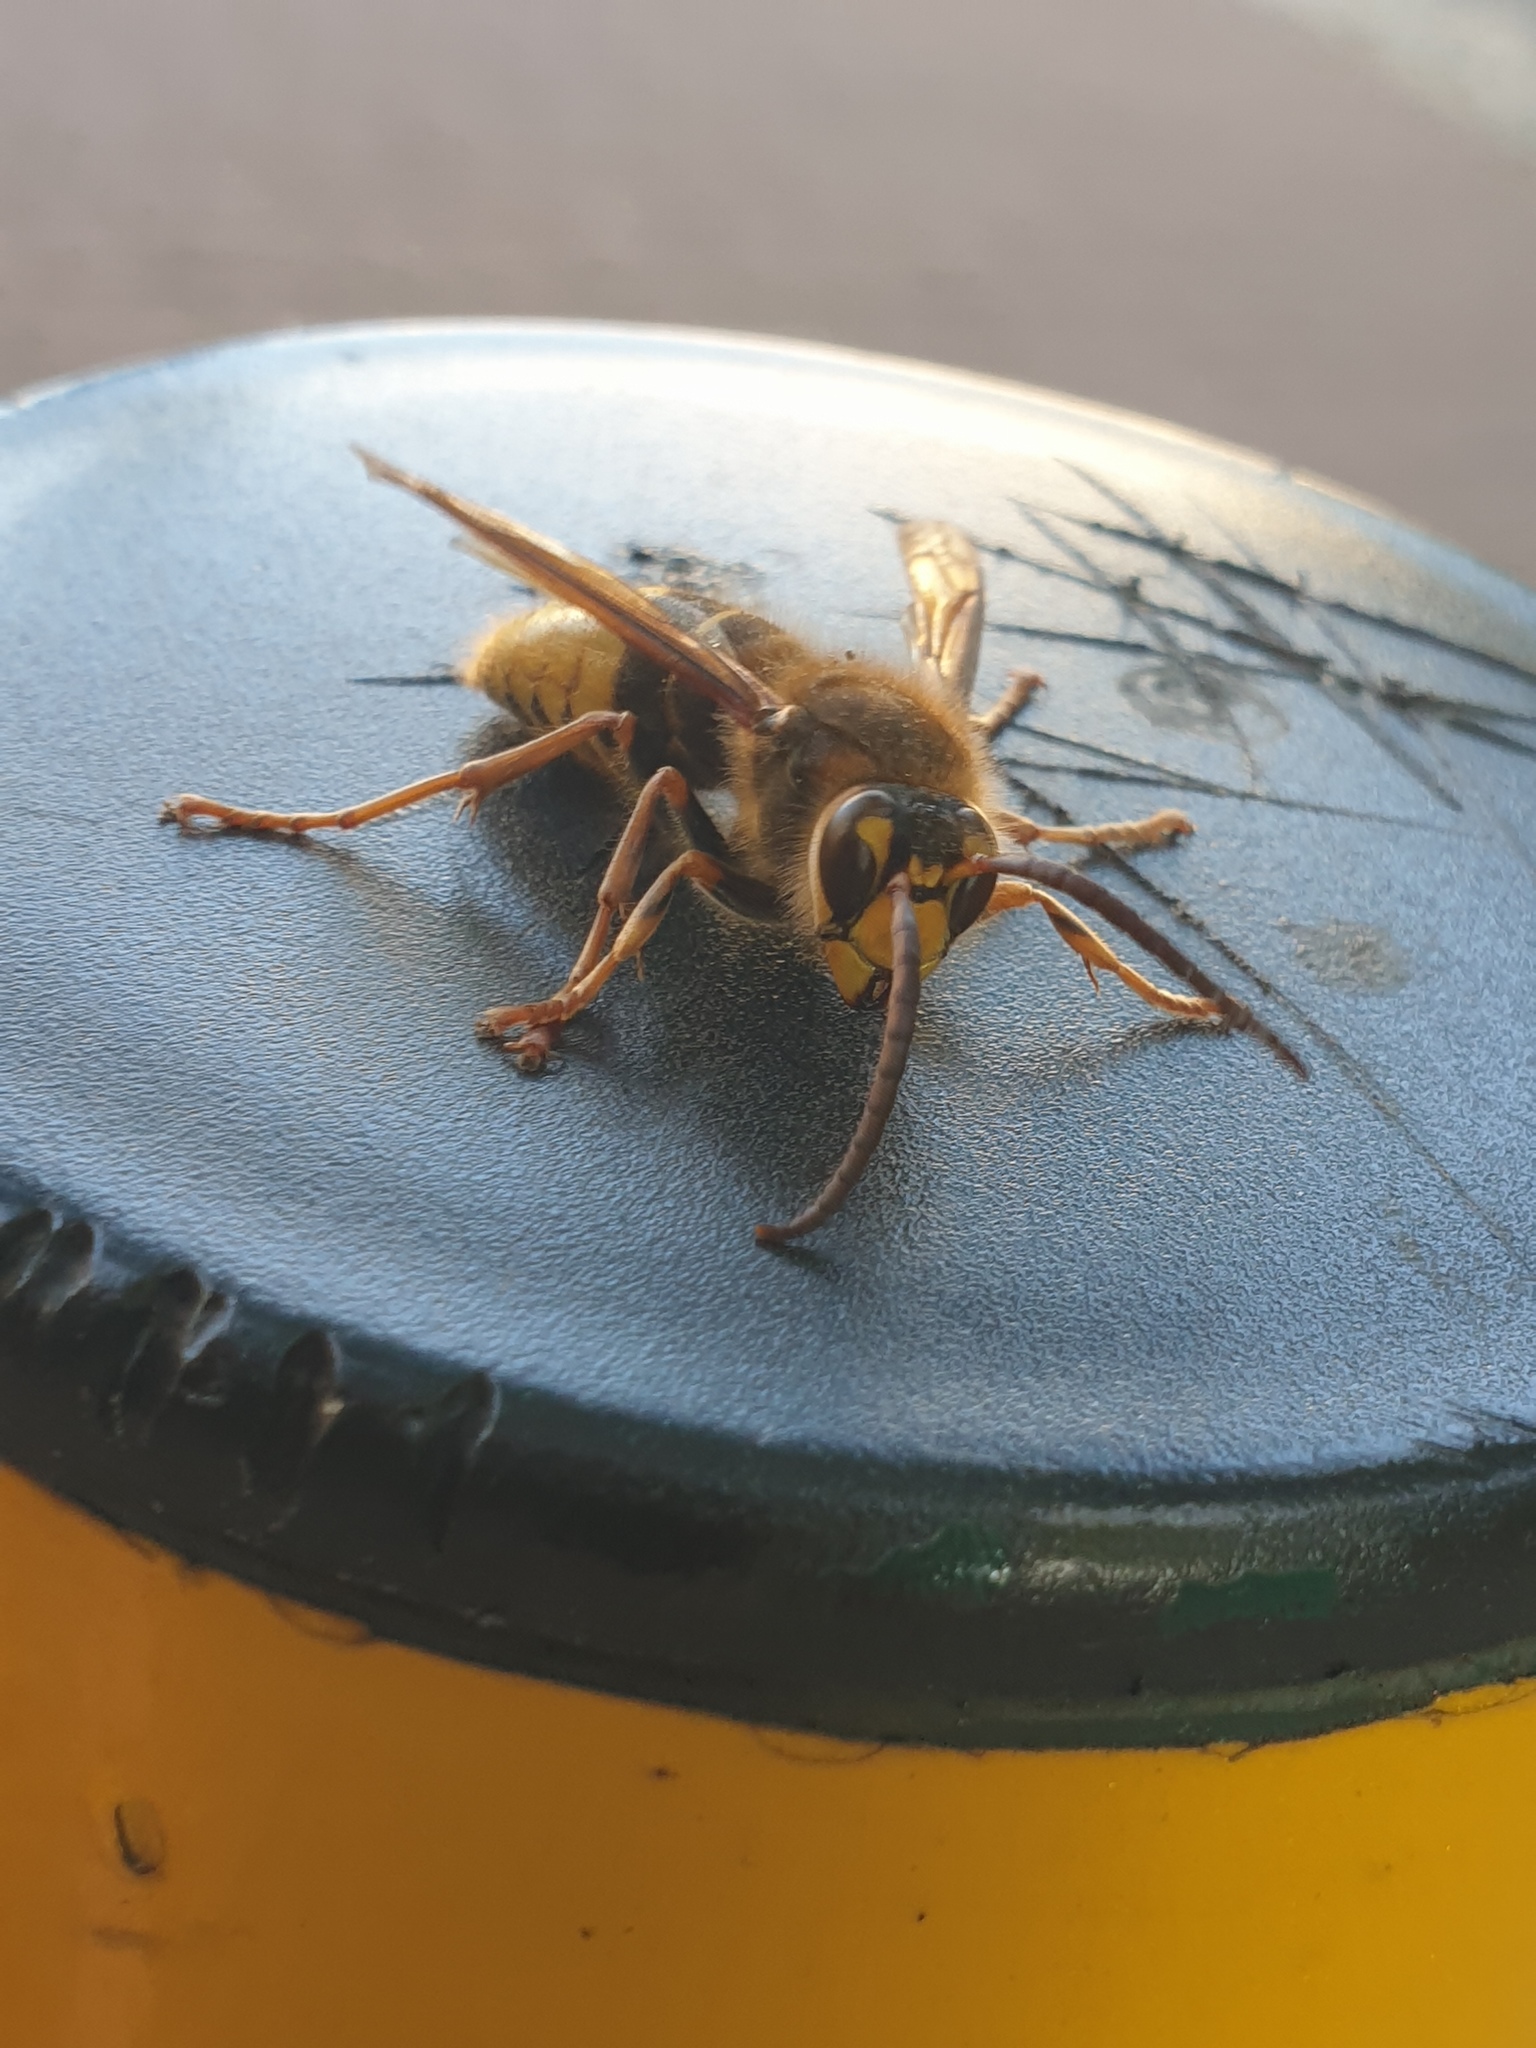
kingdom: Animalia
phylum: Arthropoda
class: Insecta
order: Hymenoptera
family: Vespidae
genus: Vespa
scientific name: Vespa crabro
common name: Hornet
